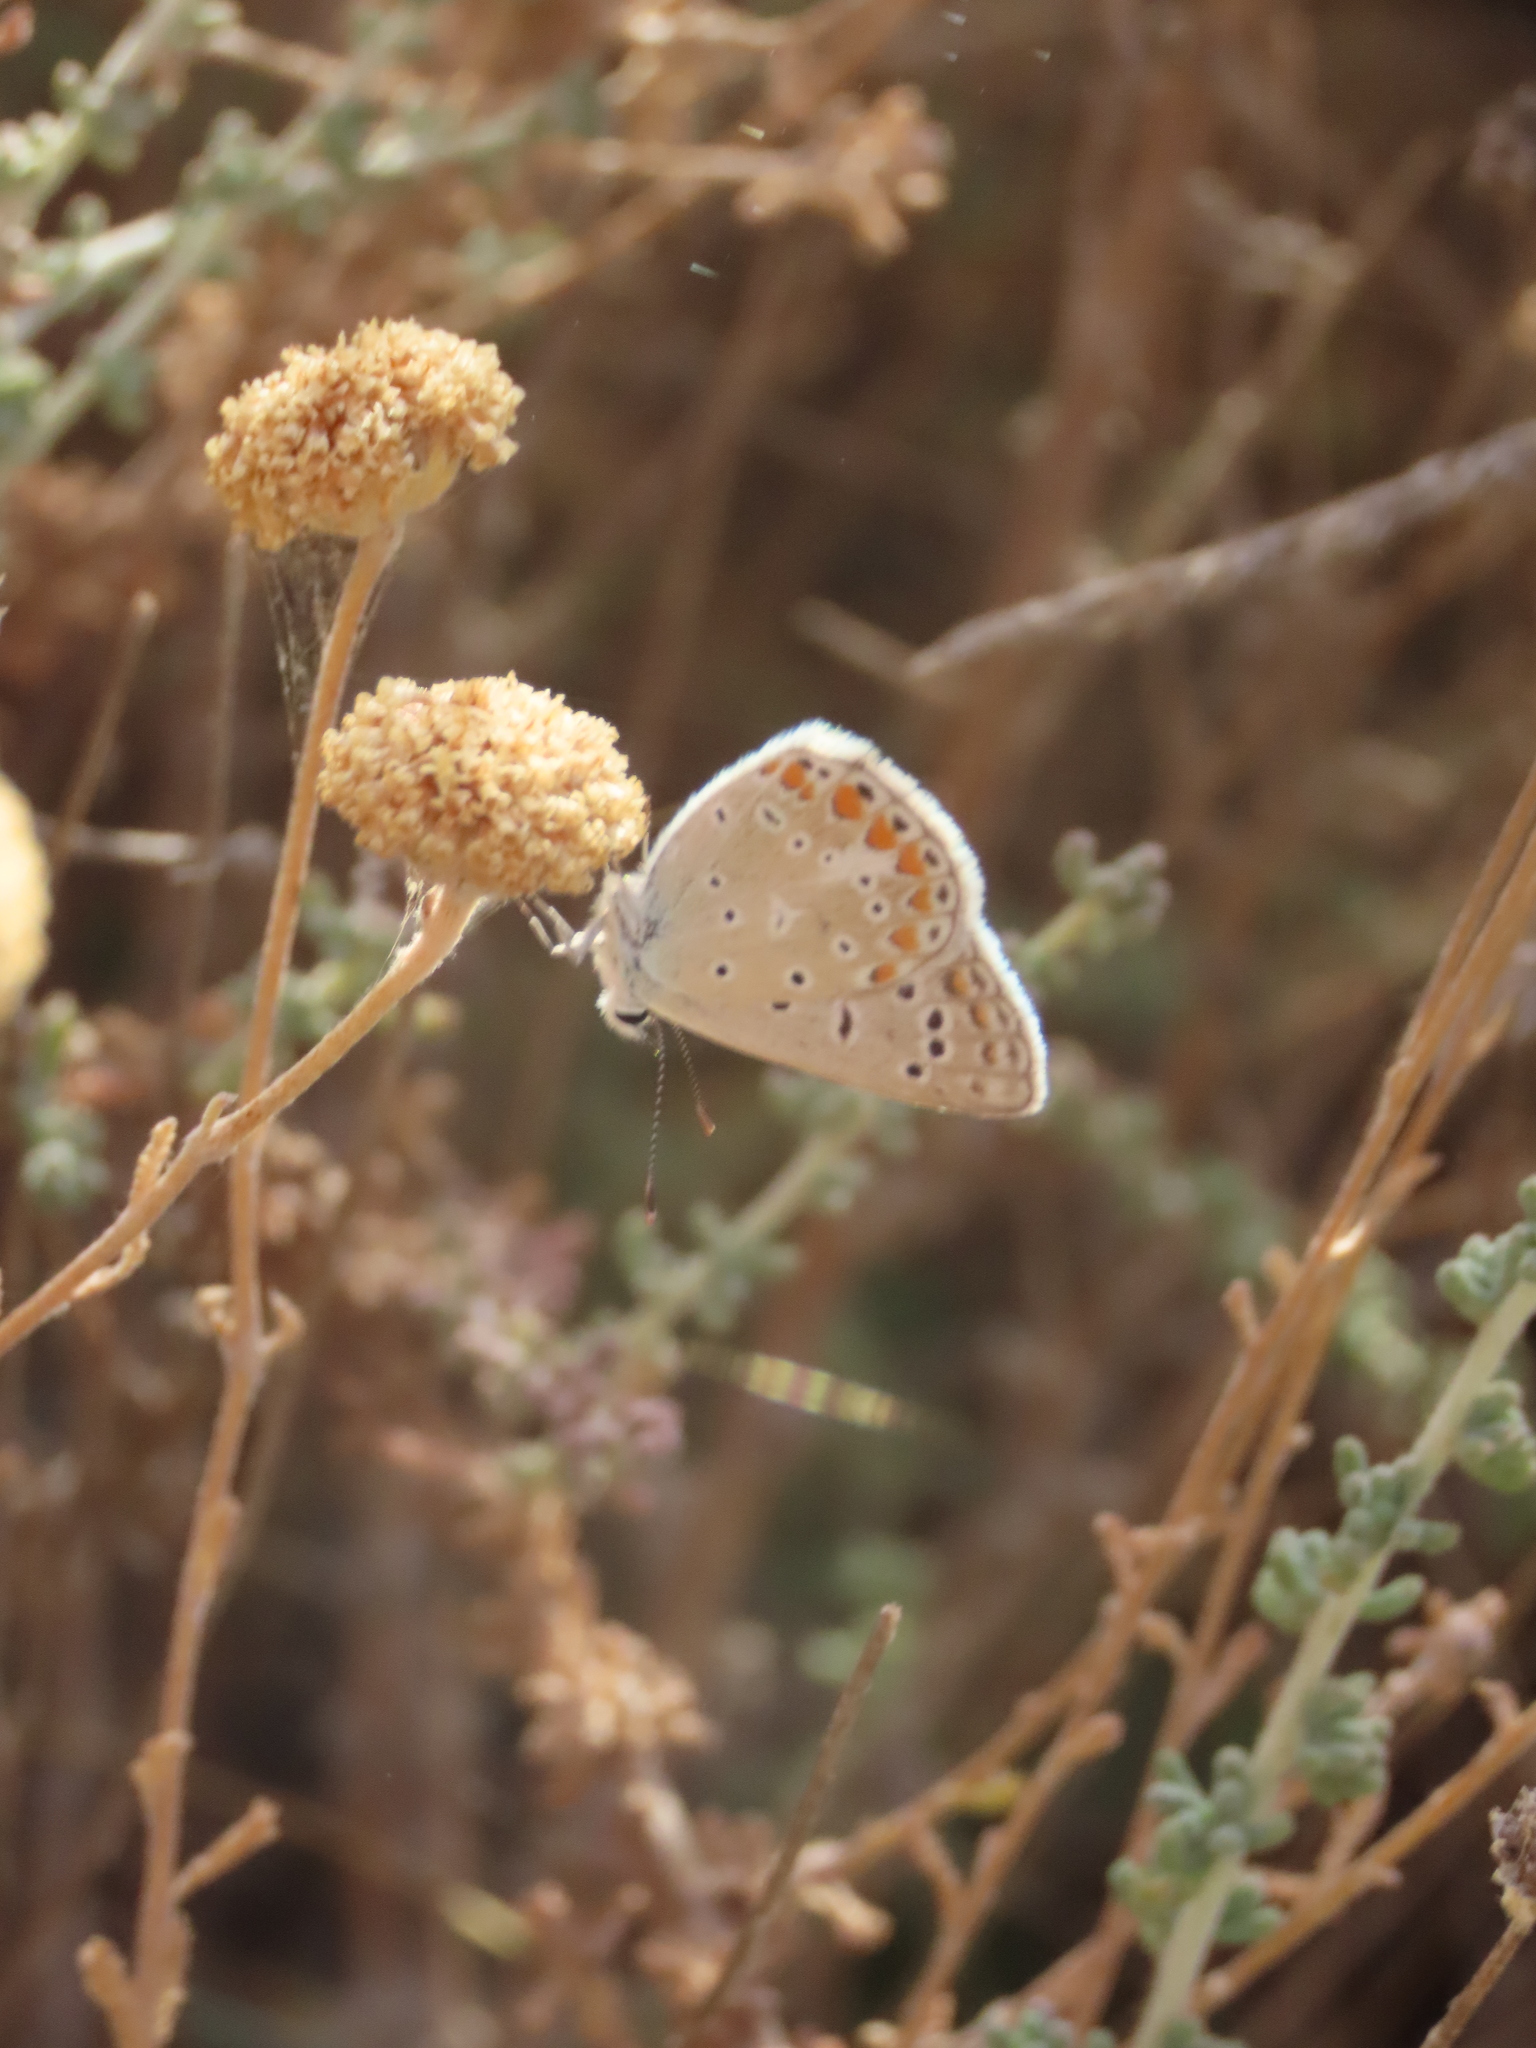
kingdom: Animalia
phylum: Arthropoda
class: Insecta
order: Lepidoptera
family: Lycaenidae
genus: Polyommatus
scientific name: Polyommatus celina
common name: Austaut's blue
